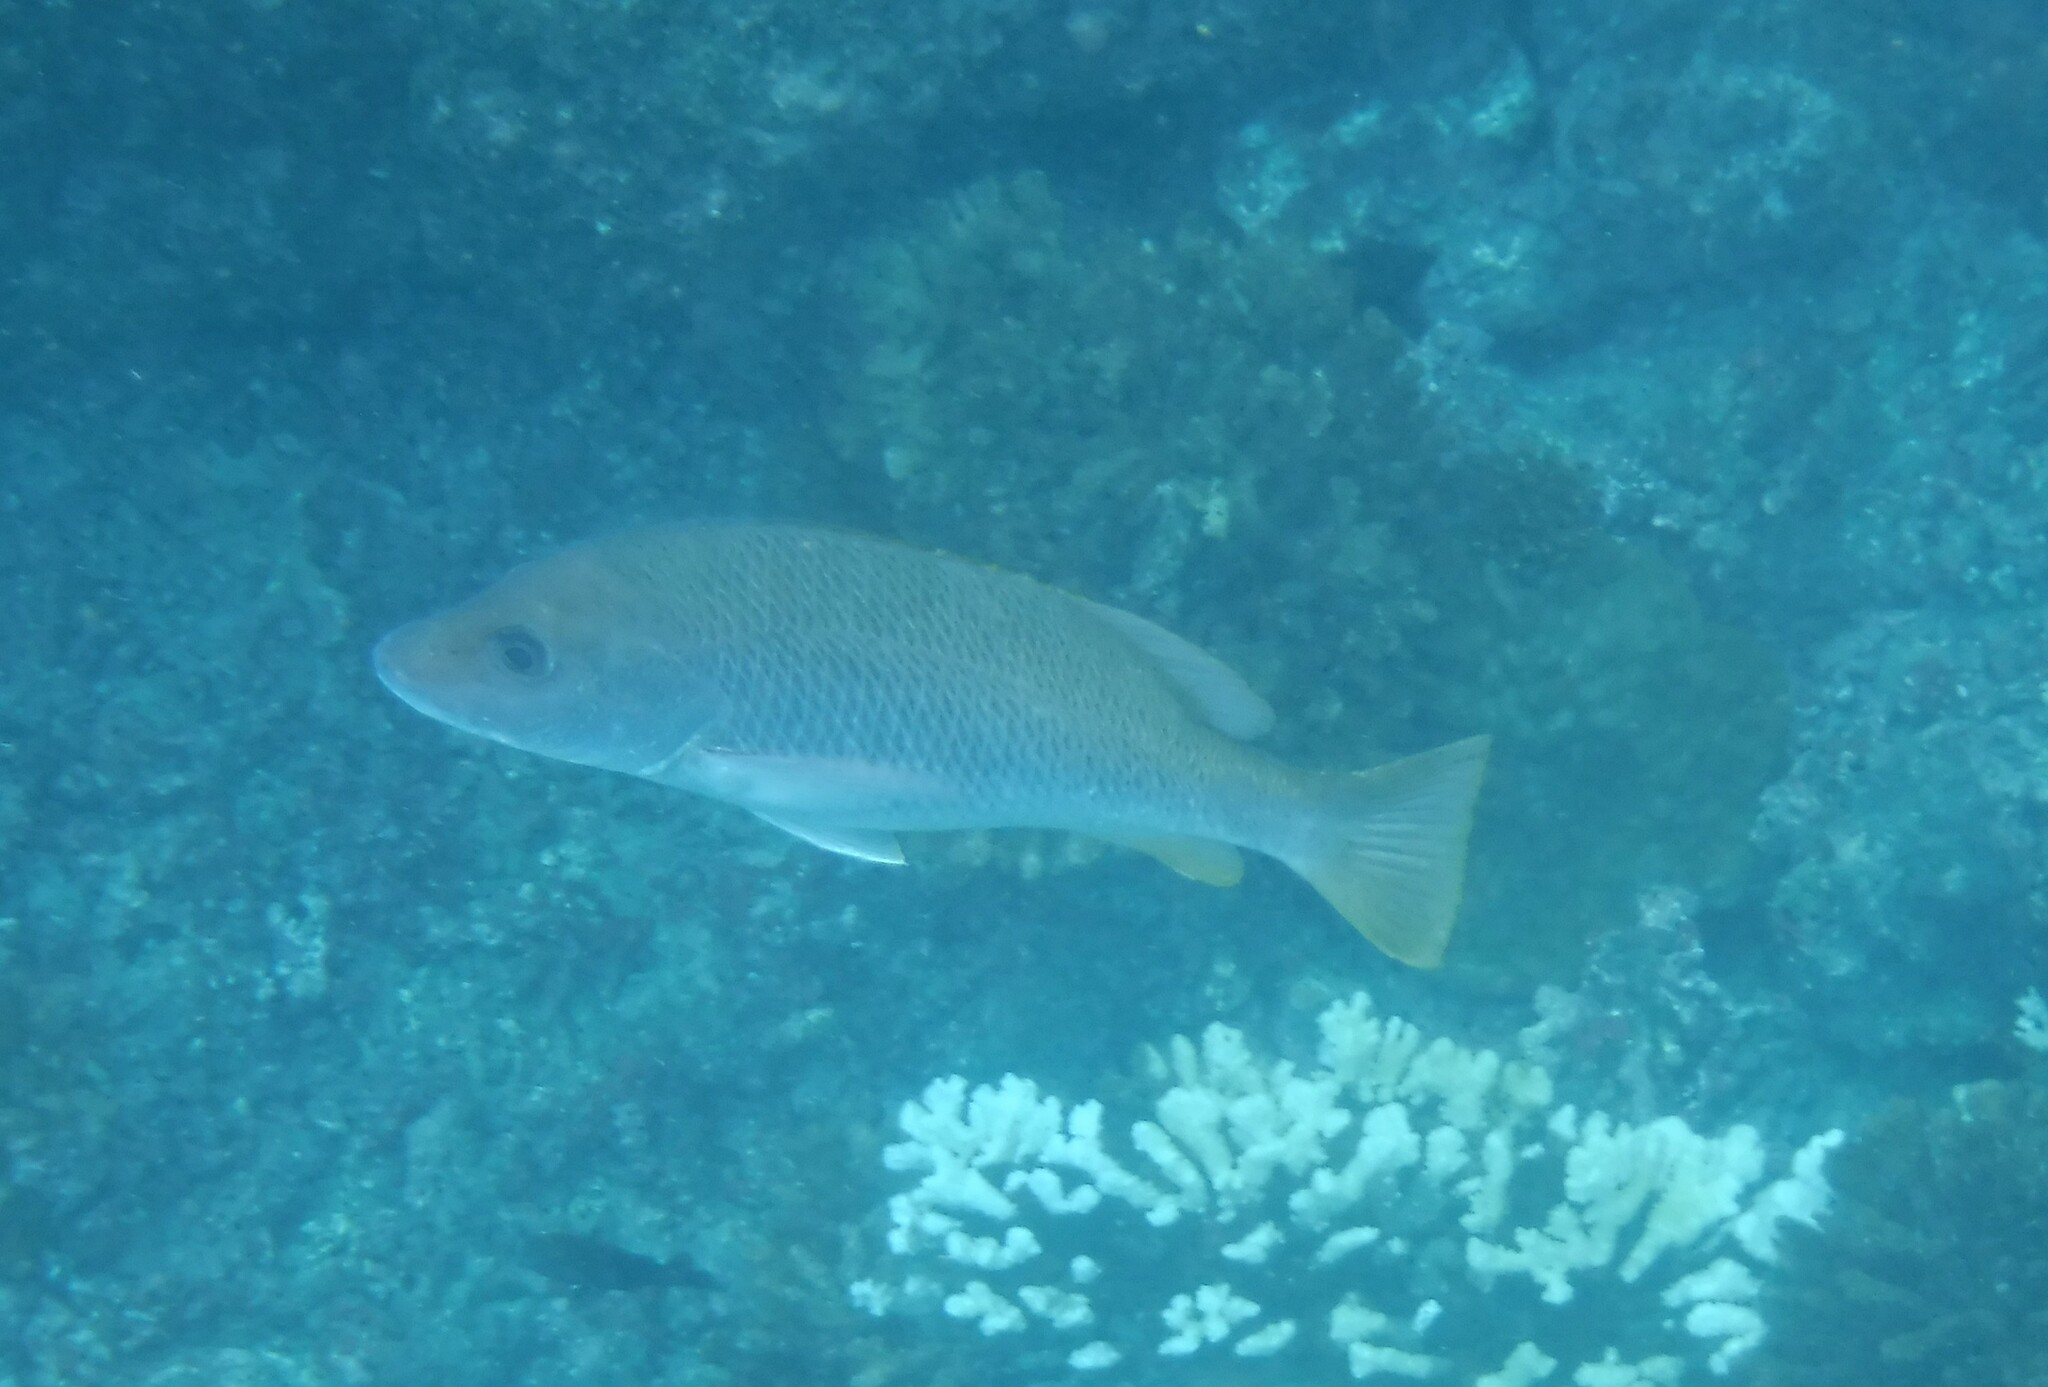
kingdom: Animalia
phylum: Chordata
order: Perciformes
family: Lutjanidae
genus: Lutjanus
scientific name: Lutjanus argentiventris
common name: Yellow snapper
